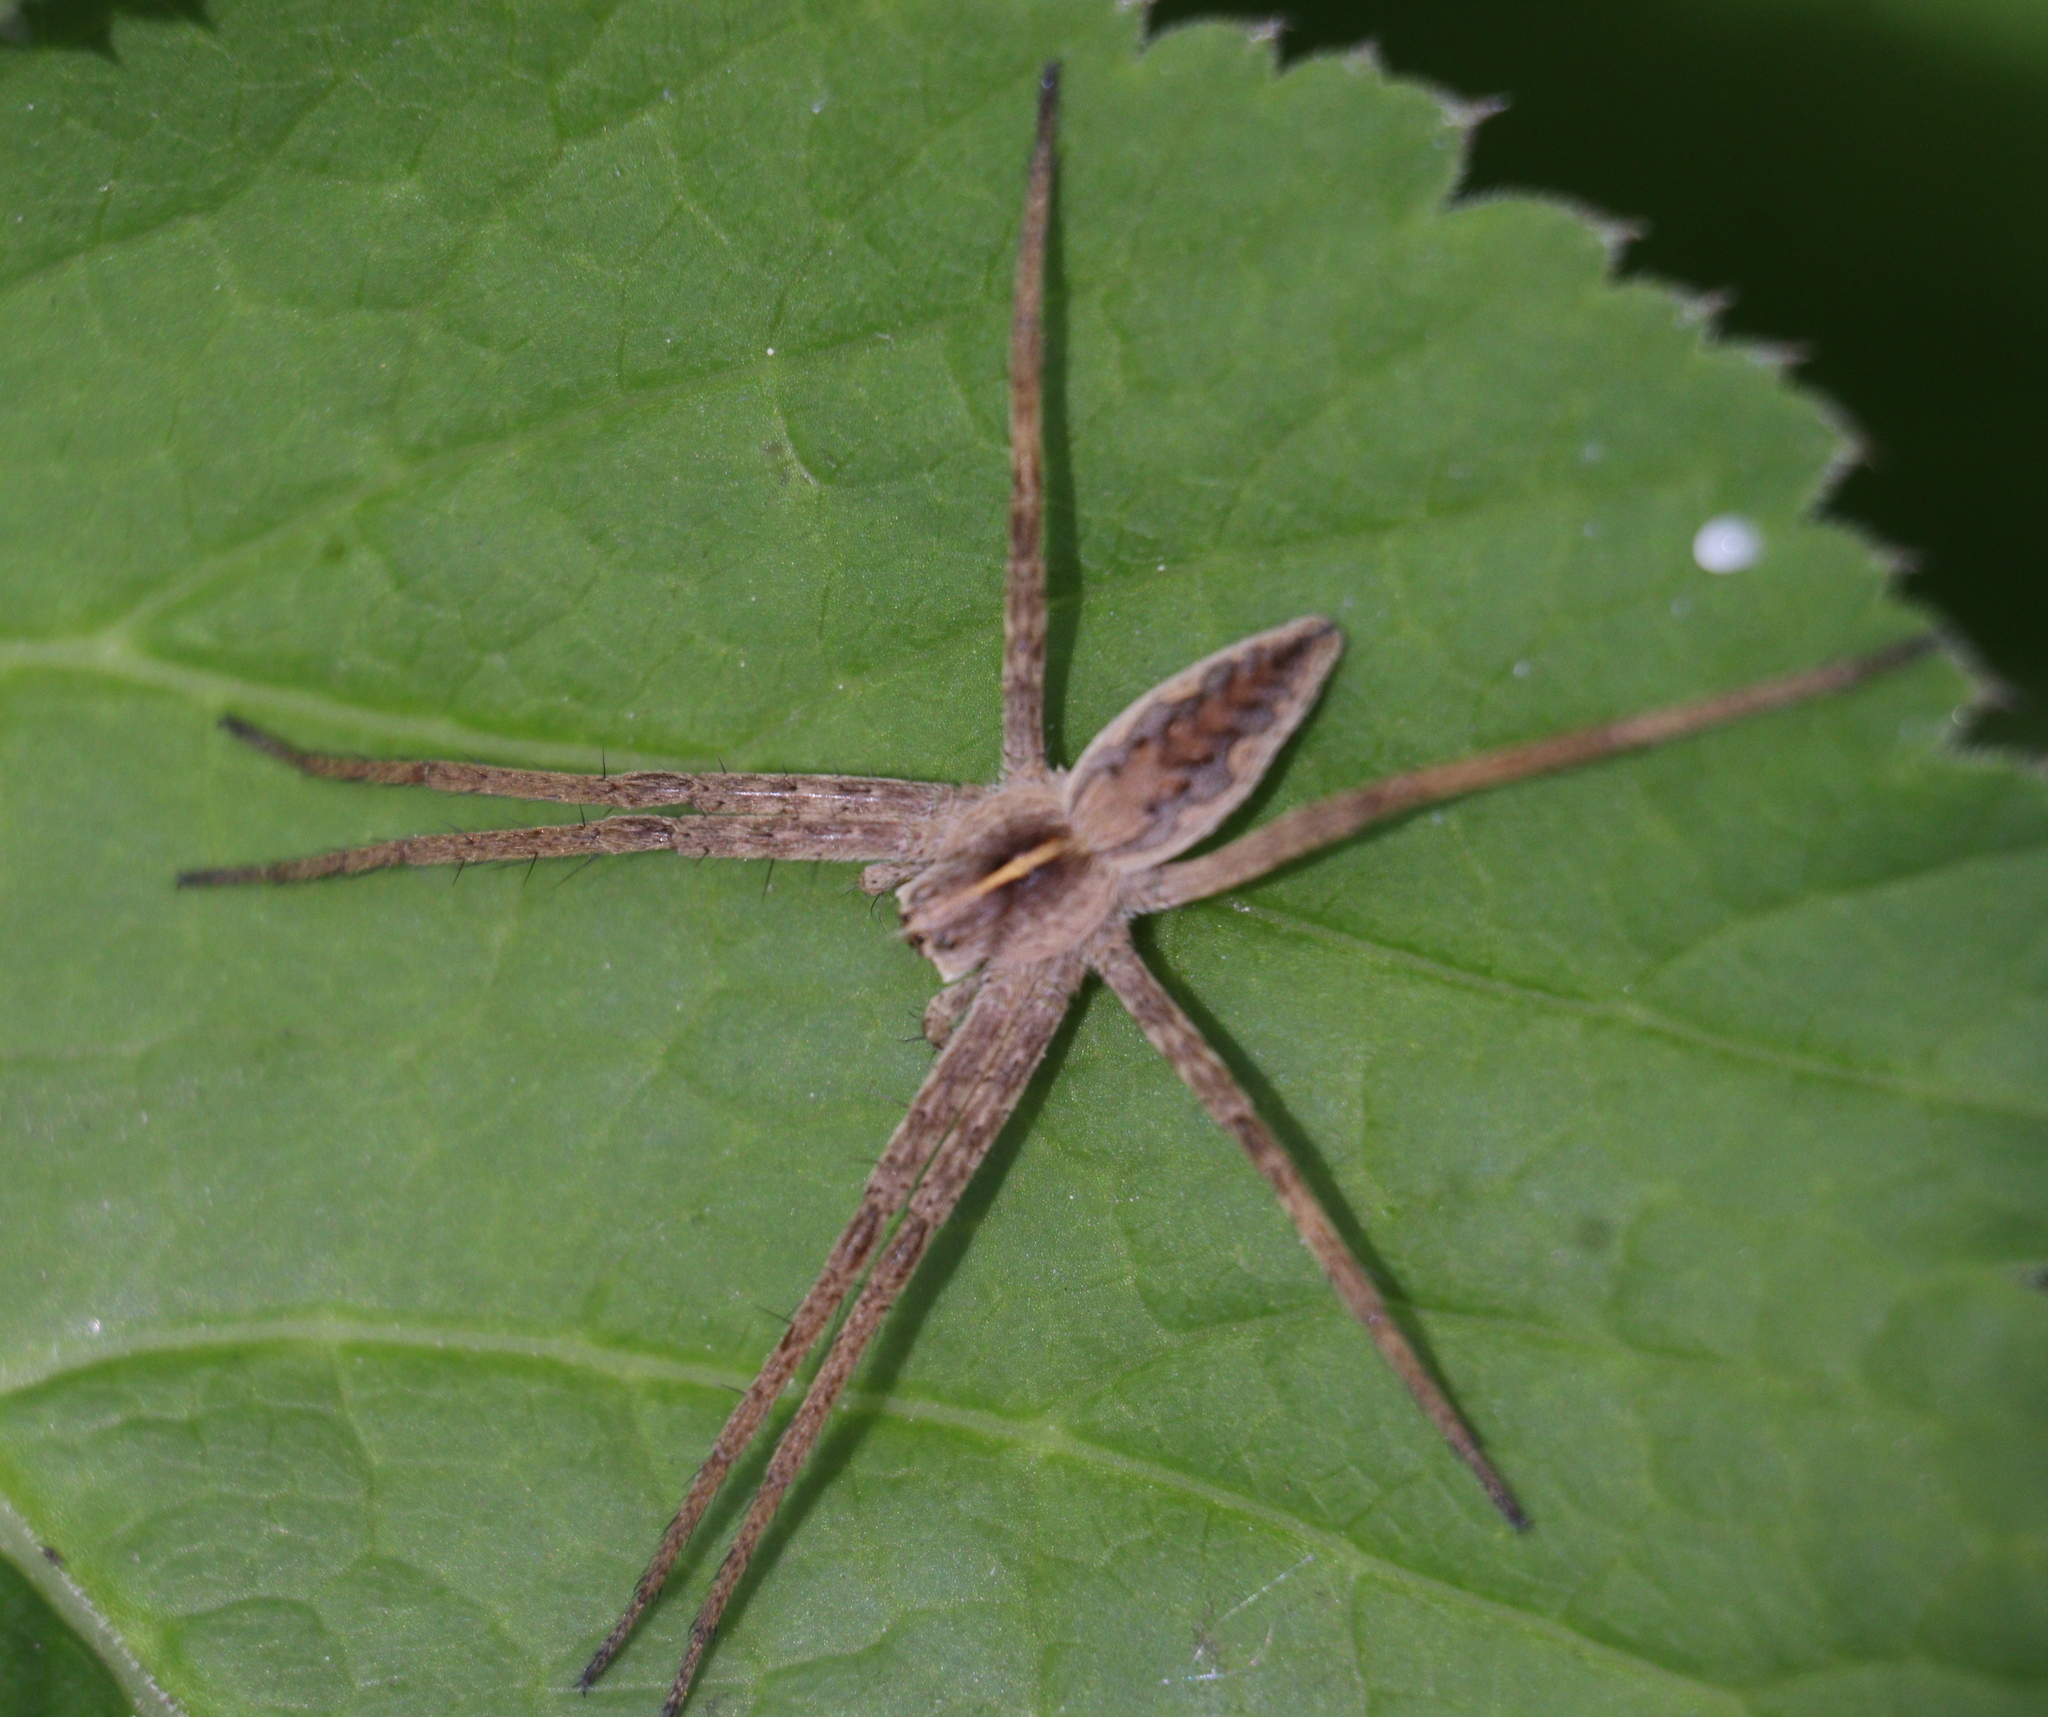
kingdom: Animalia
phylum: Arthropoda
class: Arachnida
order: Araneae
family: Pisauridae
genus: Pisaura
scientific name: Pisaura mirabilis
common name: Tent spider
